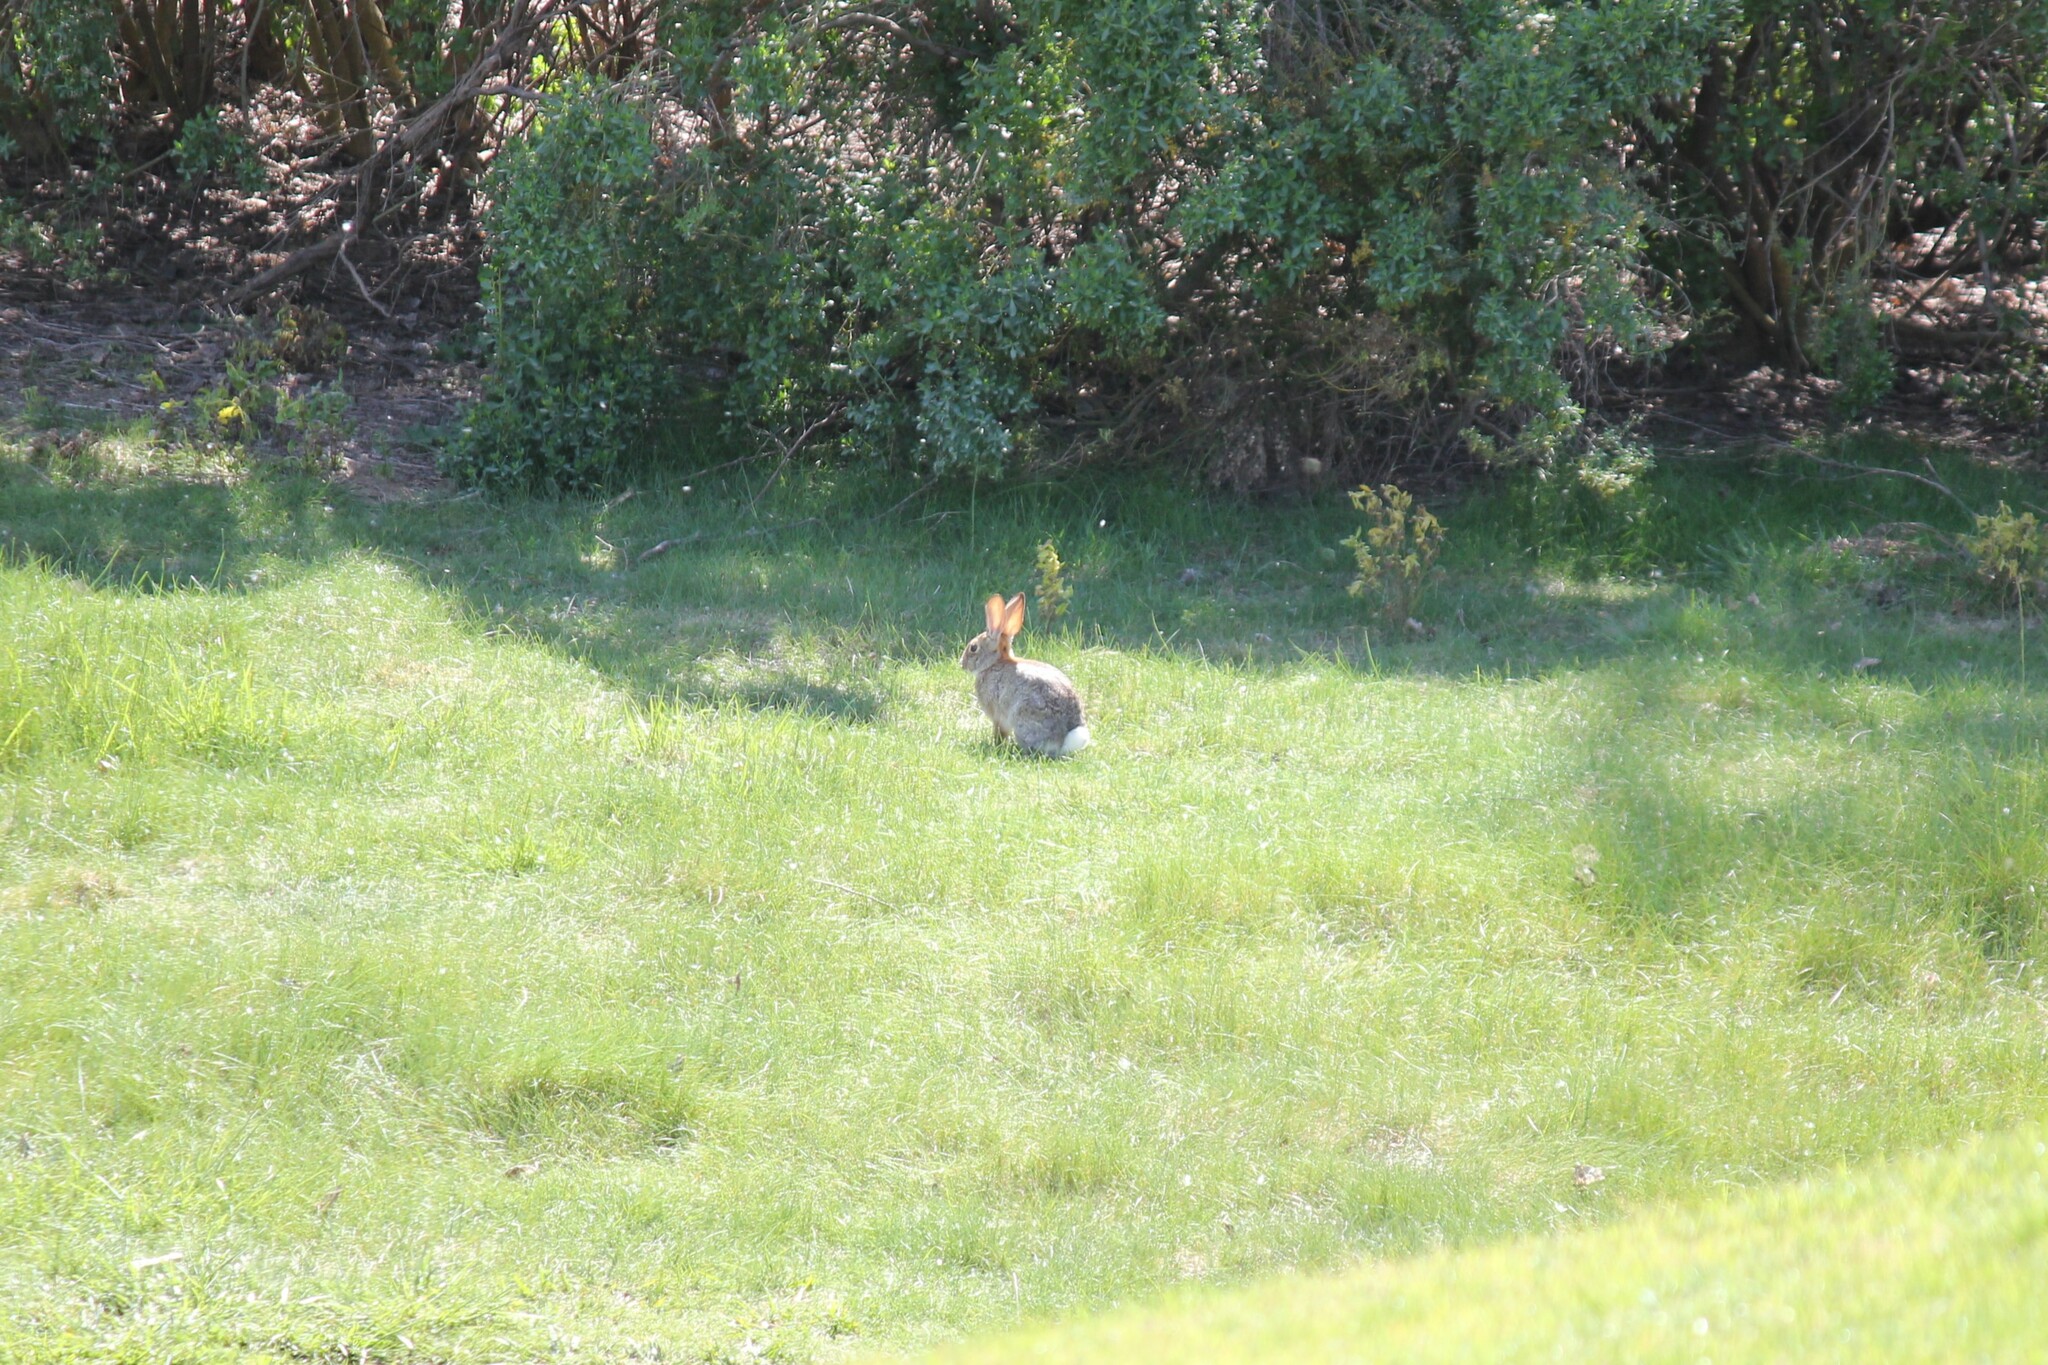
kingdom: Animalia
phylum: Chordata
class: Mammalia
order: Lagomorpha
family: Leporidae
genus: Sylvilagus
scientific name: Sylvilagus audubonii
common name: Desert cottontail
